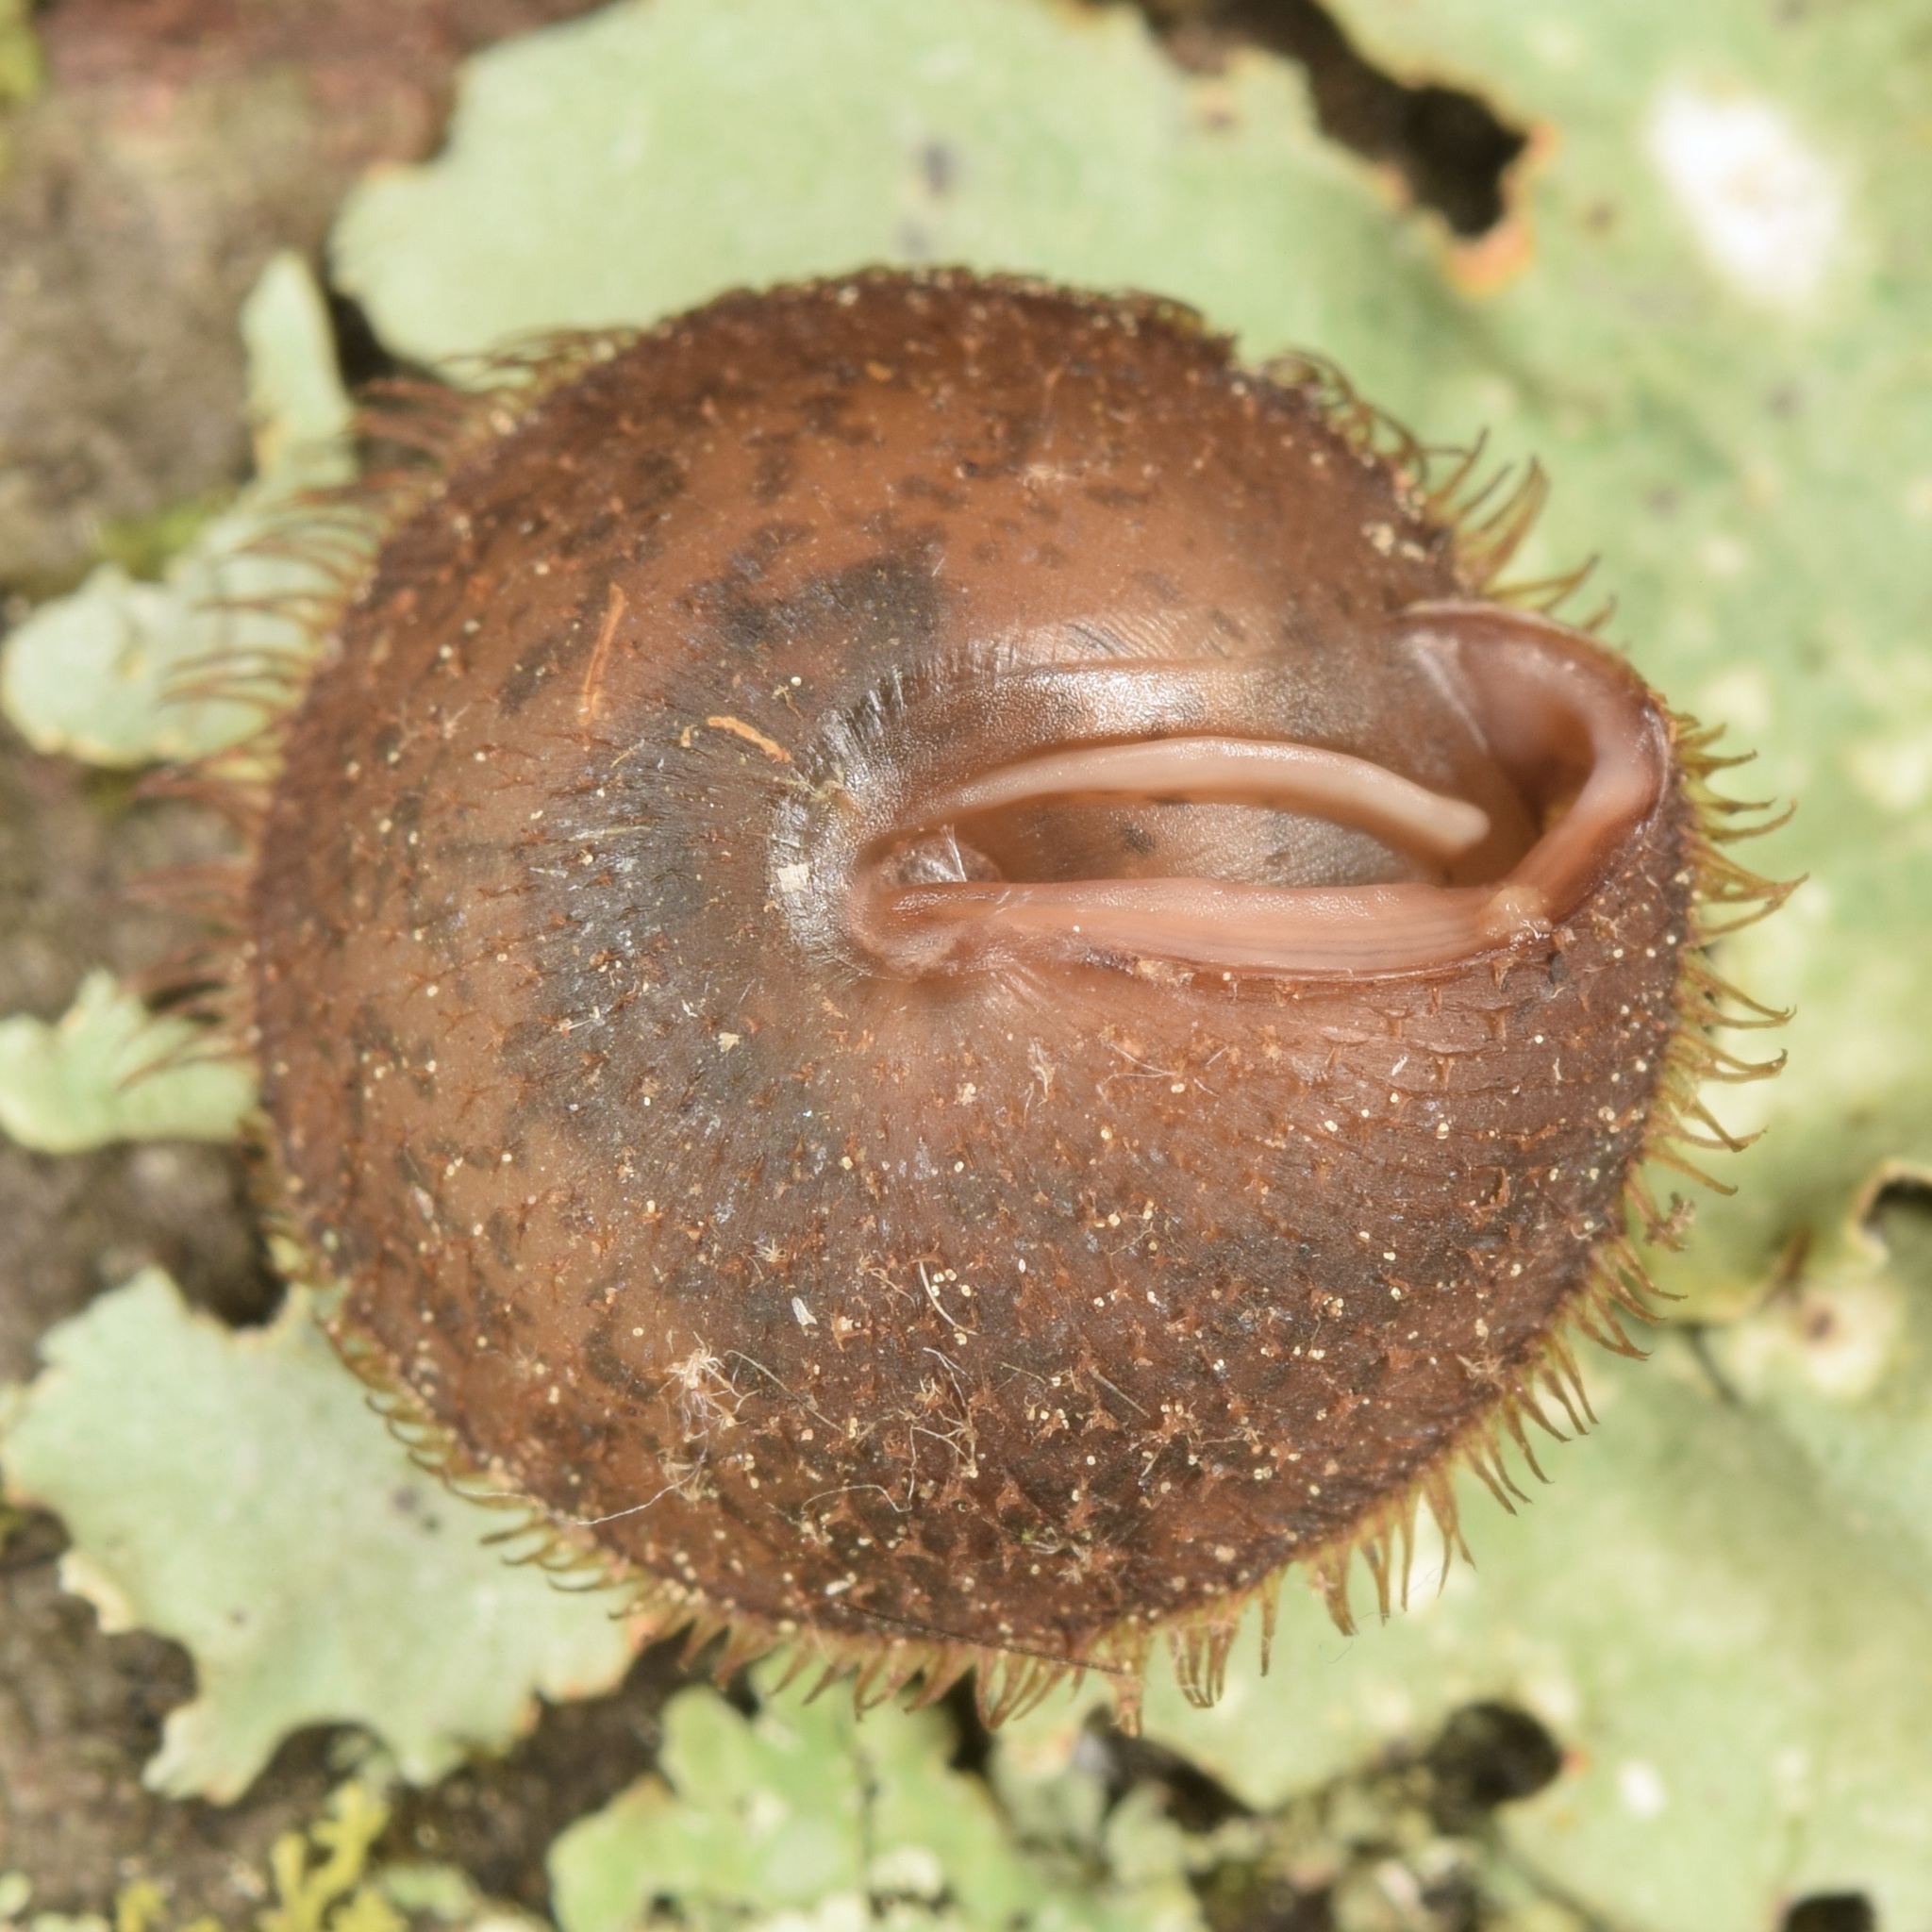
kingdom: Animalia
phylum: Mollusca
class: Gastropoda
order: Stylommatophora
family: Polygyridae
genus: Stenotrema
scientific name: Stenotrema barbigerum
